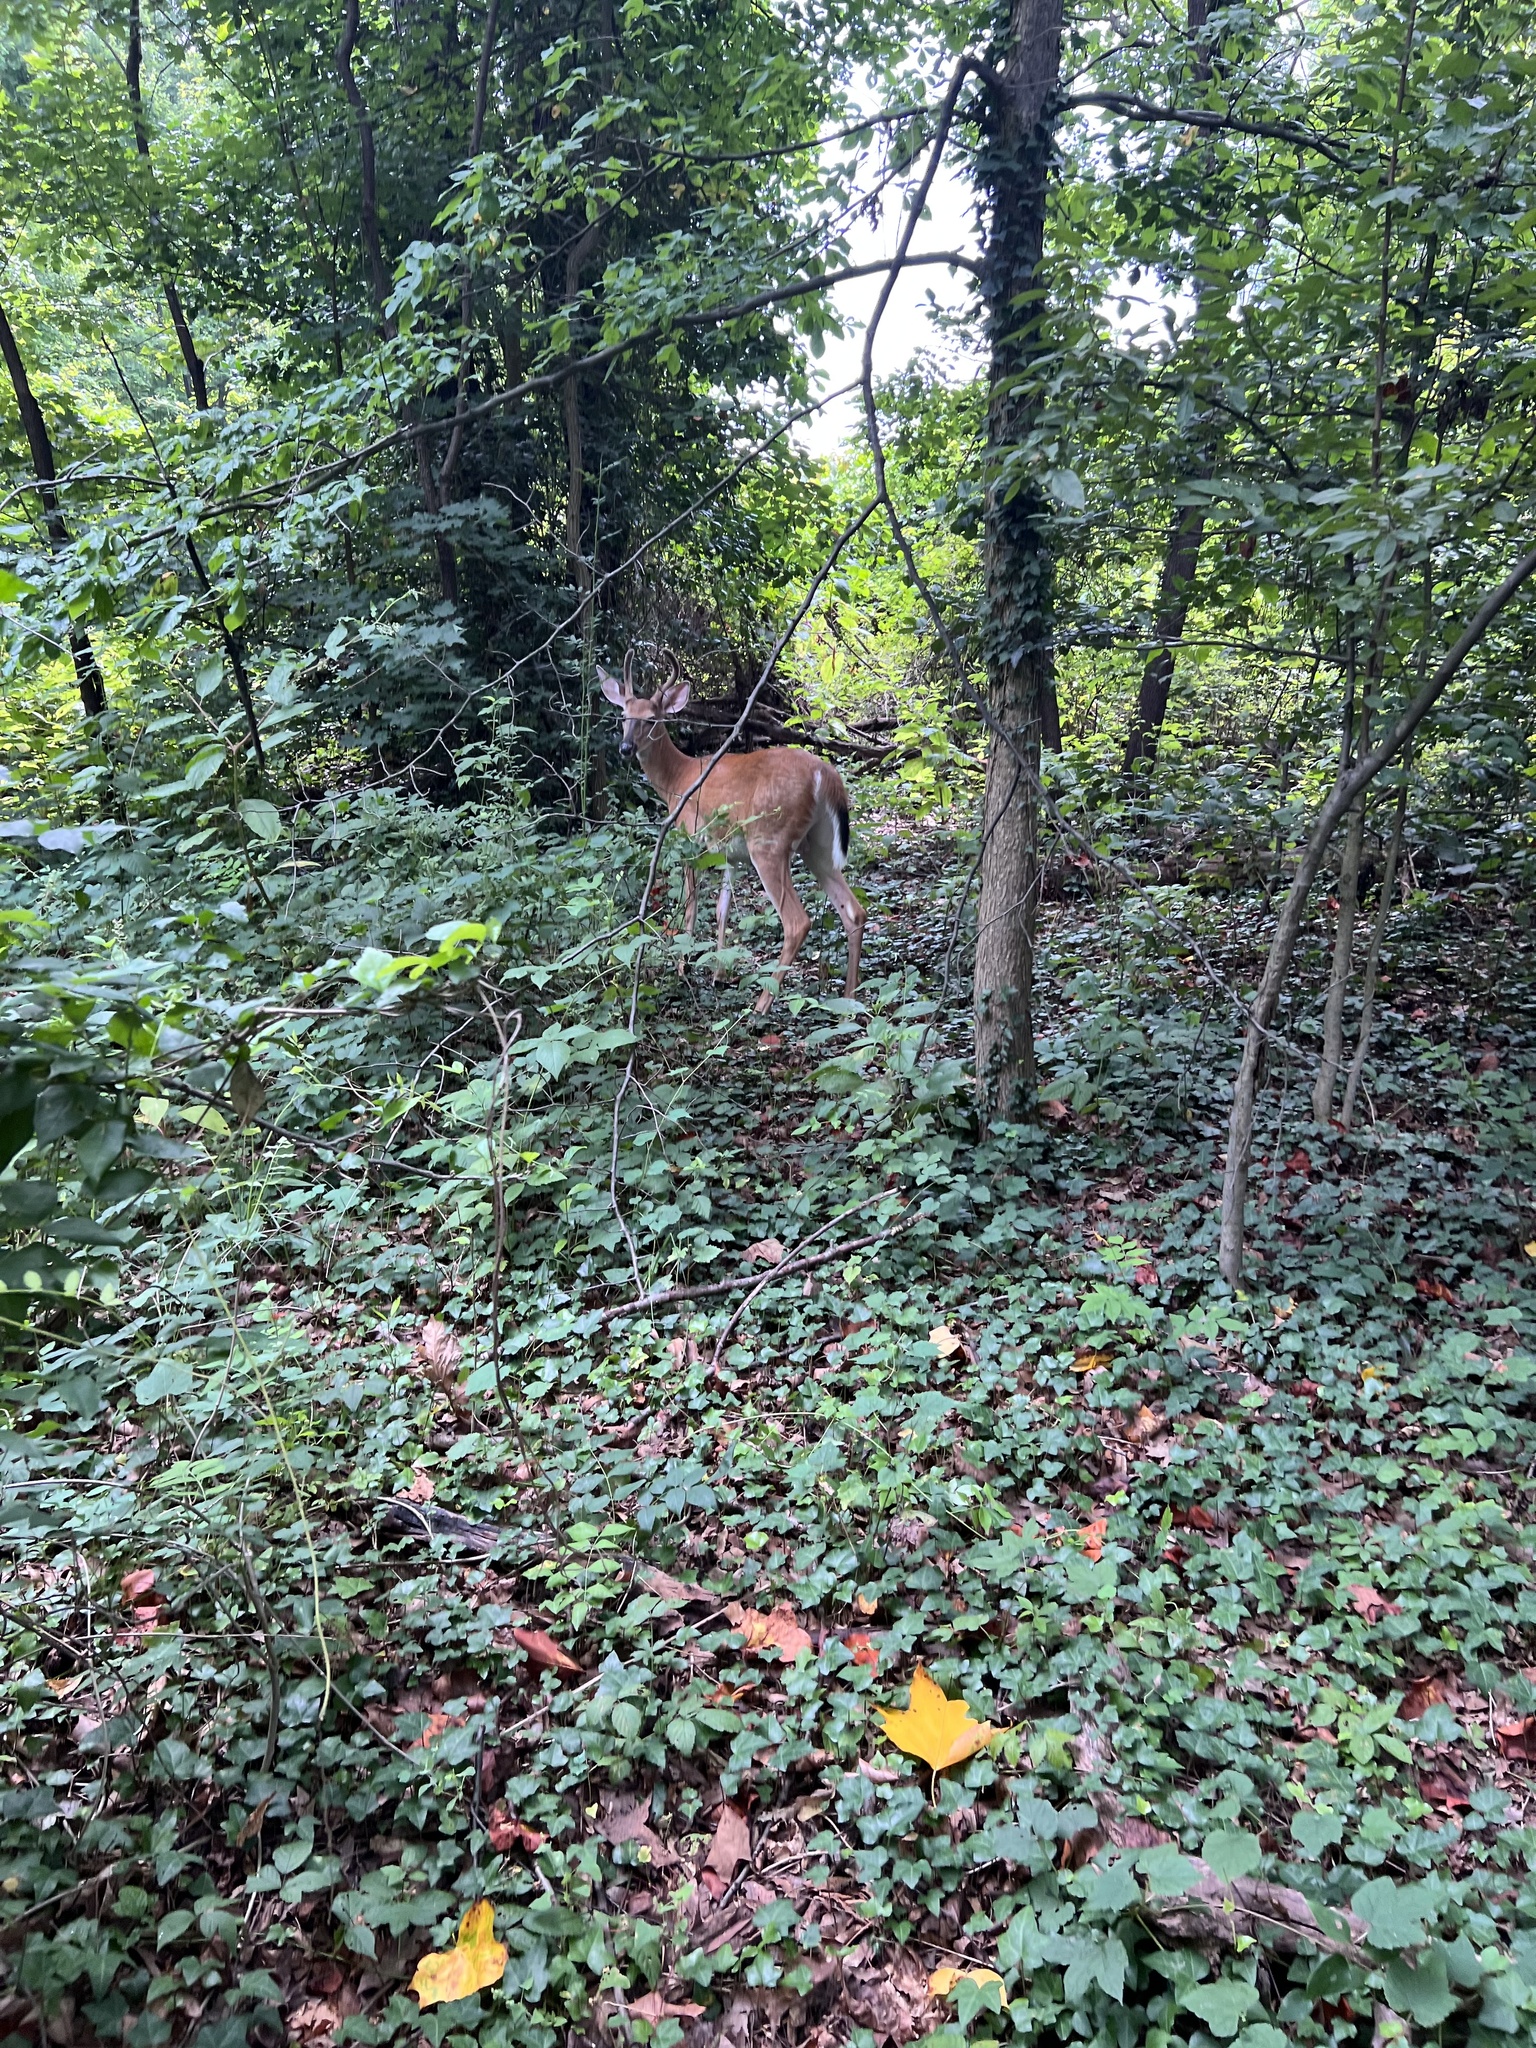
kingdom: Animalia
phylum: Chordata
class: Mammalia
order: Artiodactyla
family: Cervidae
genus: Odocoileus
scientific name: Odocoileus virginianus
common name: White-tailed deer
